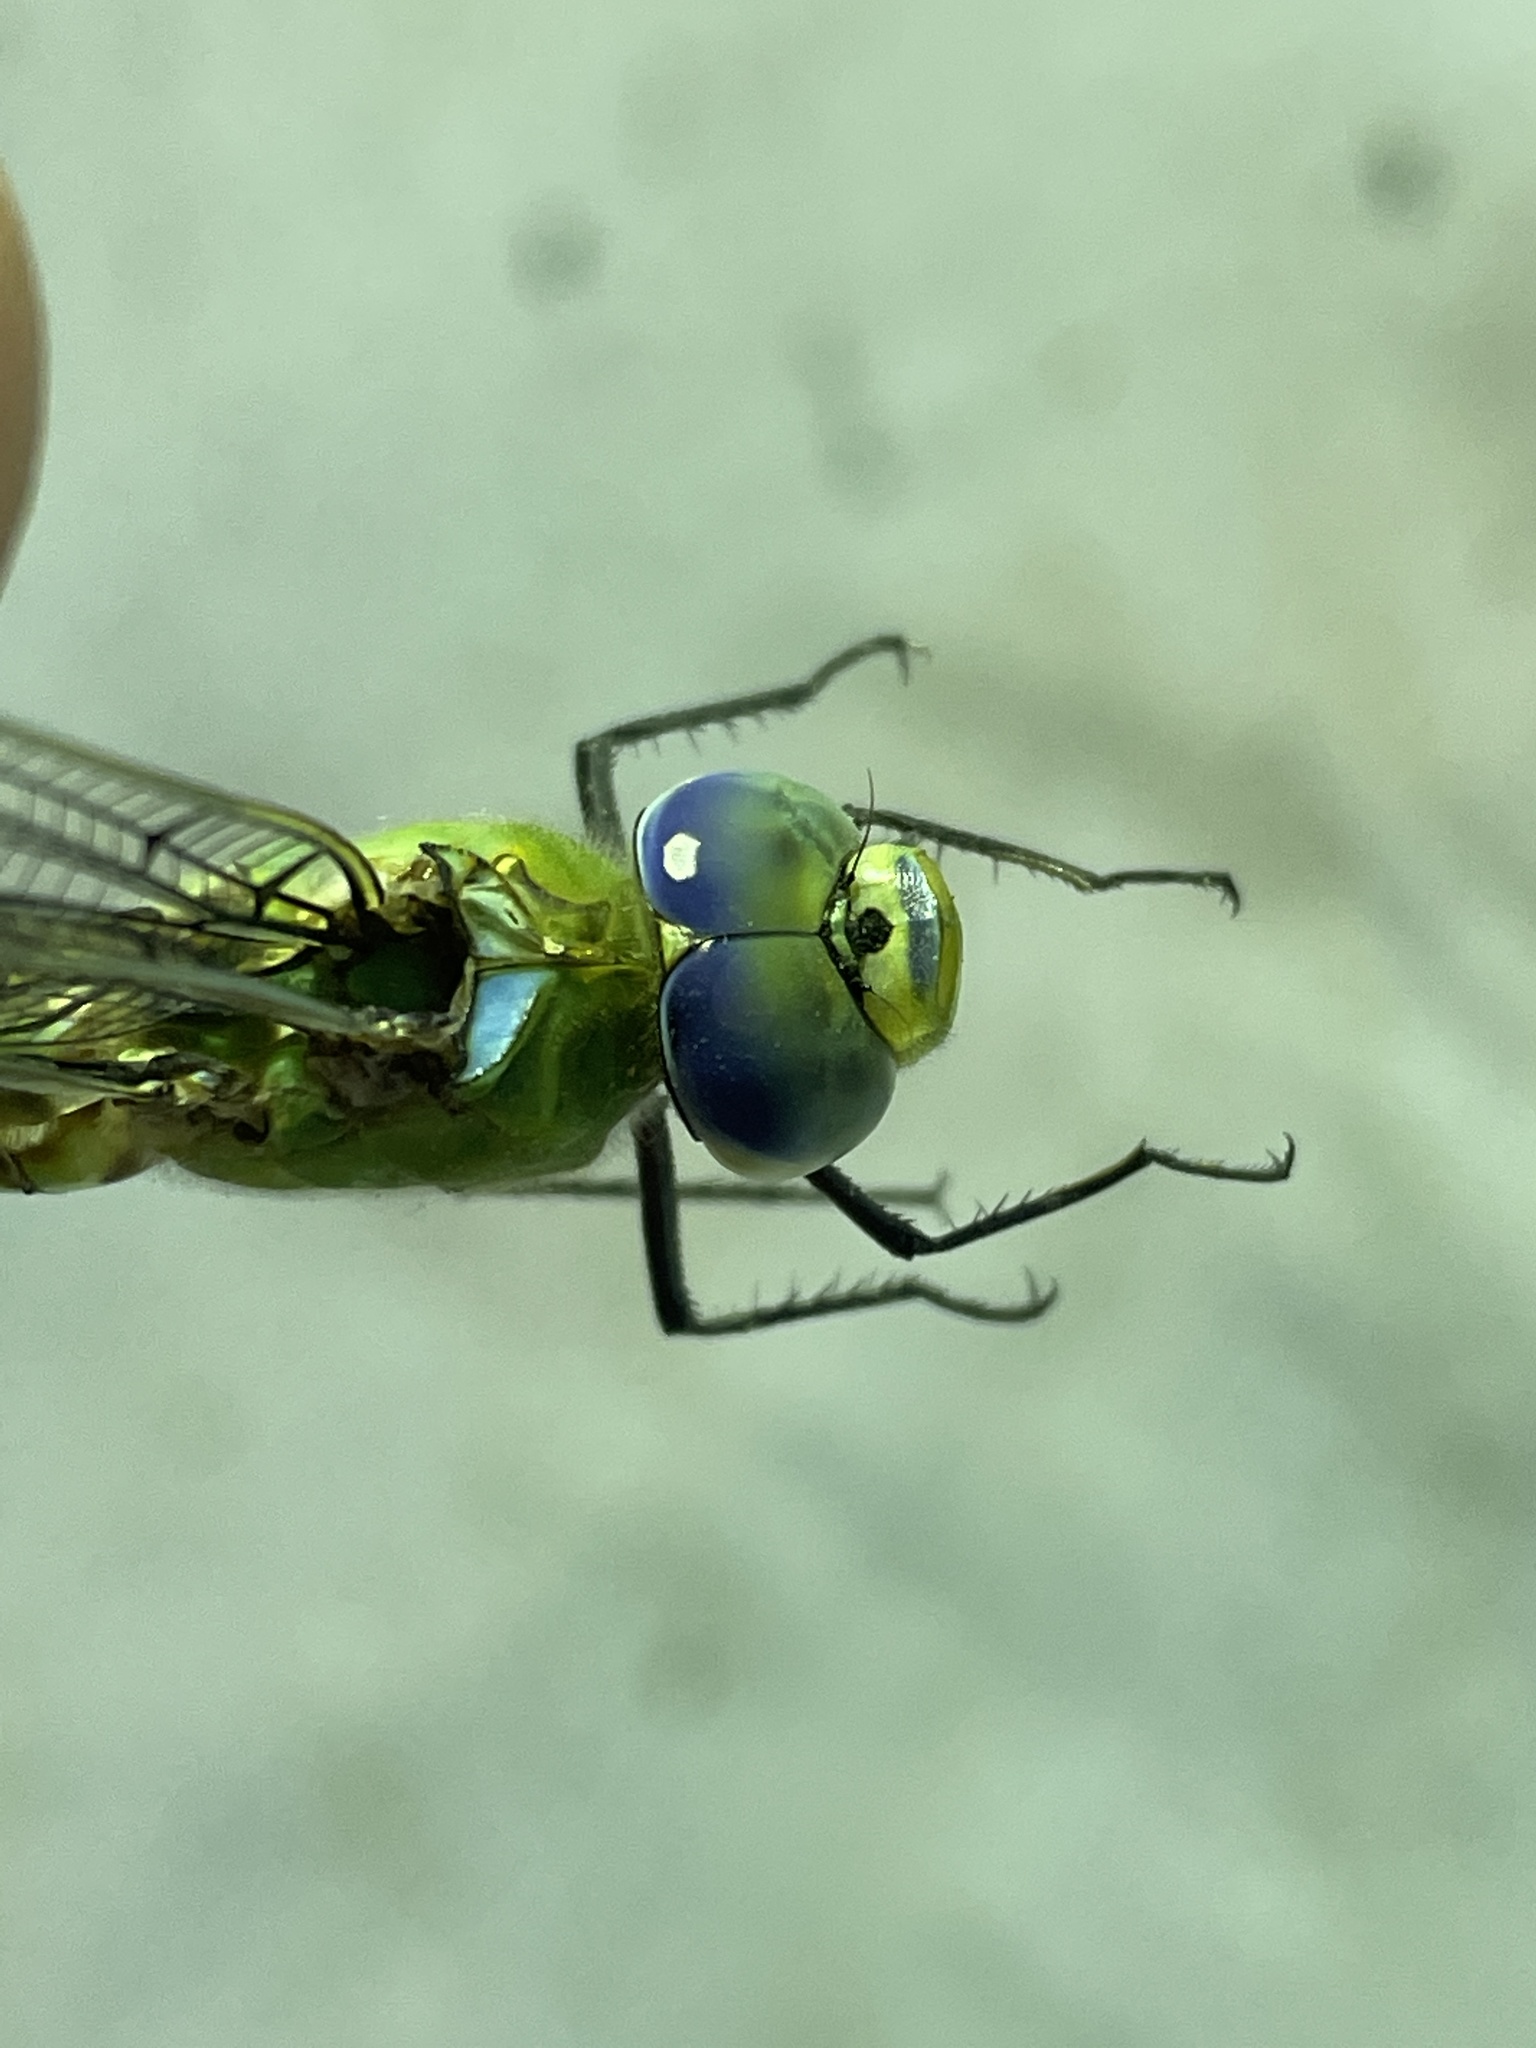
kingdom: Animalia
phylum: Arthropoda
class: Insecta
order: Odonata
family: Aeshnidae
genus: Anax
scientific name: Anax imperator
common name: Emperor dragonfly
